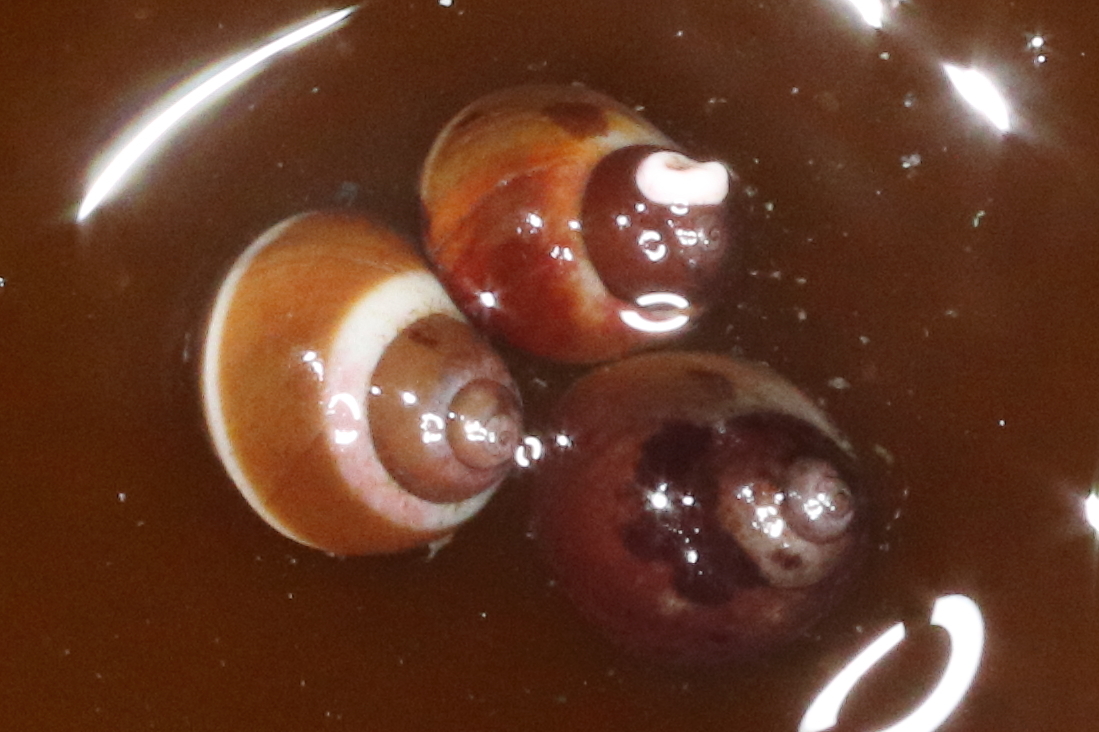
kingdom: Animalia
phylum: Mollusca
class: Gastropoda
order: Littorinimorpha
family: Littorinidae
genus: Lacuna
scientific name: Lacuna vincta
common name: Banded chink shell
